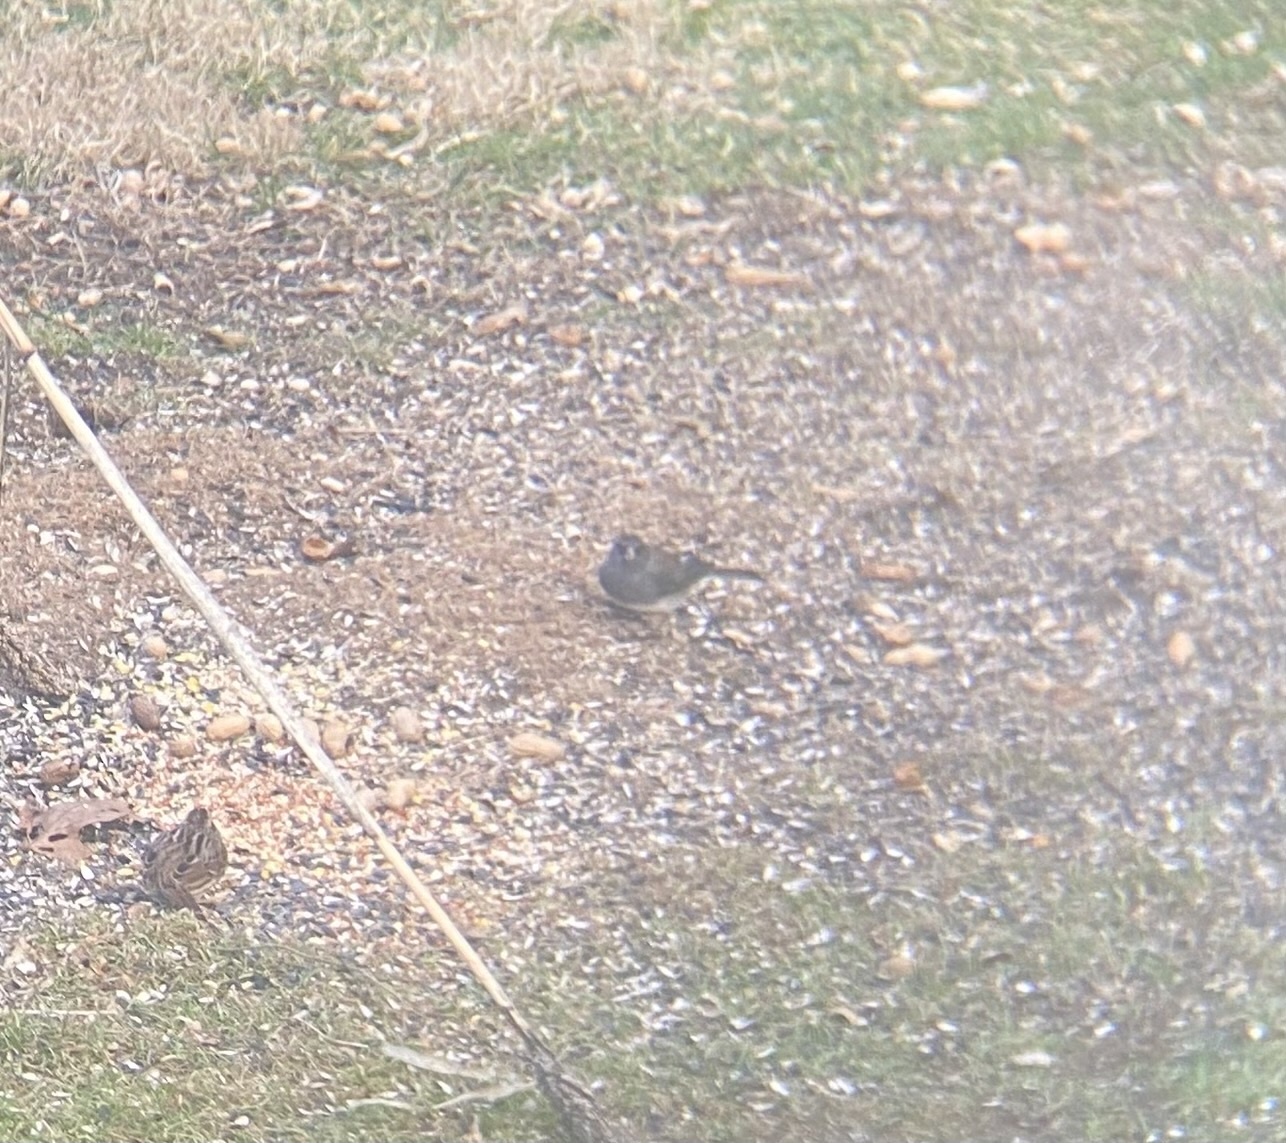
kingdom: Animalia
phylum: Chordata
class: Aves
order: Passeriformes
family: Passerellidae
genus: Junco
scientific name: Junco hyemalis
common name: Dark-eyed junco
